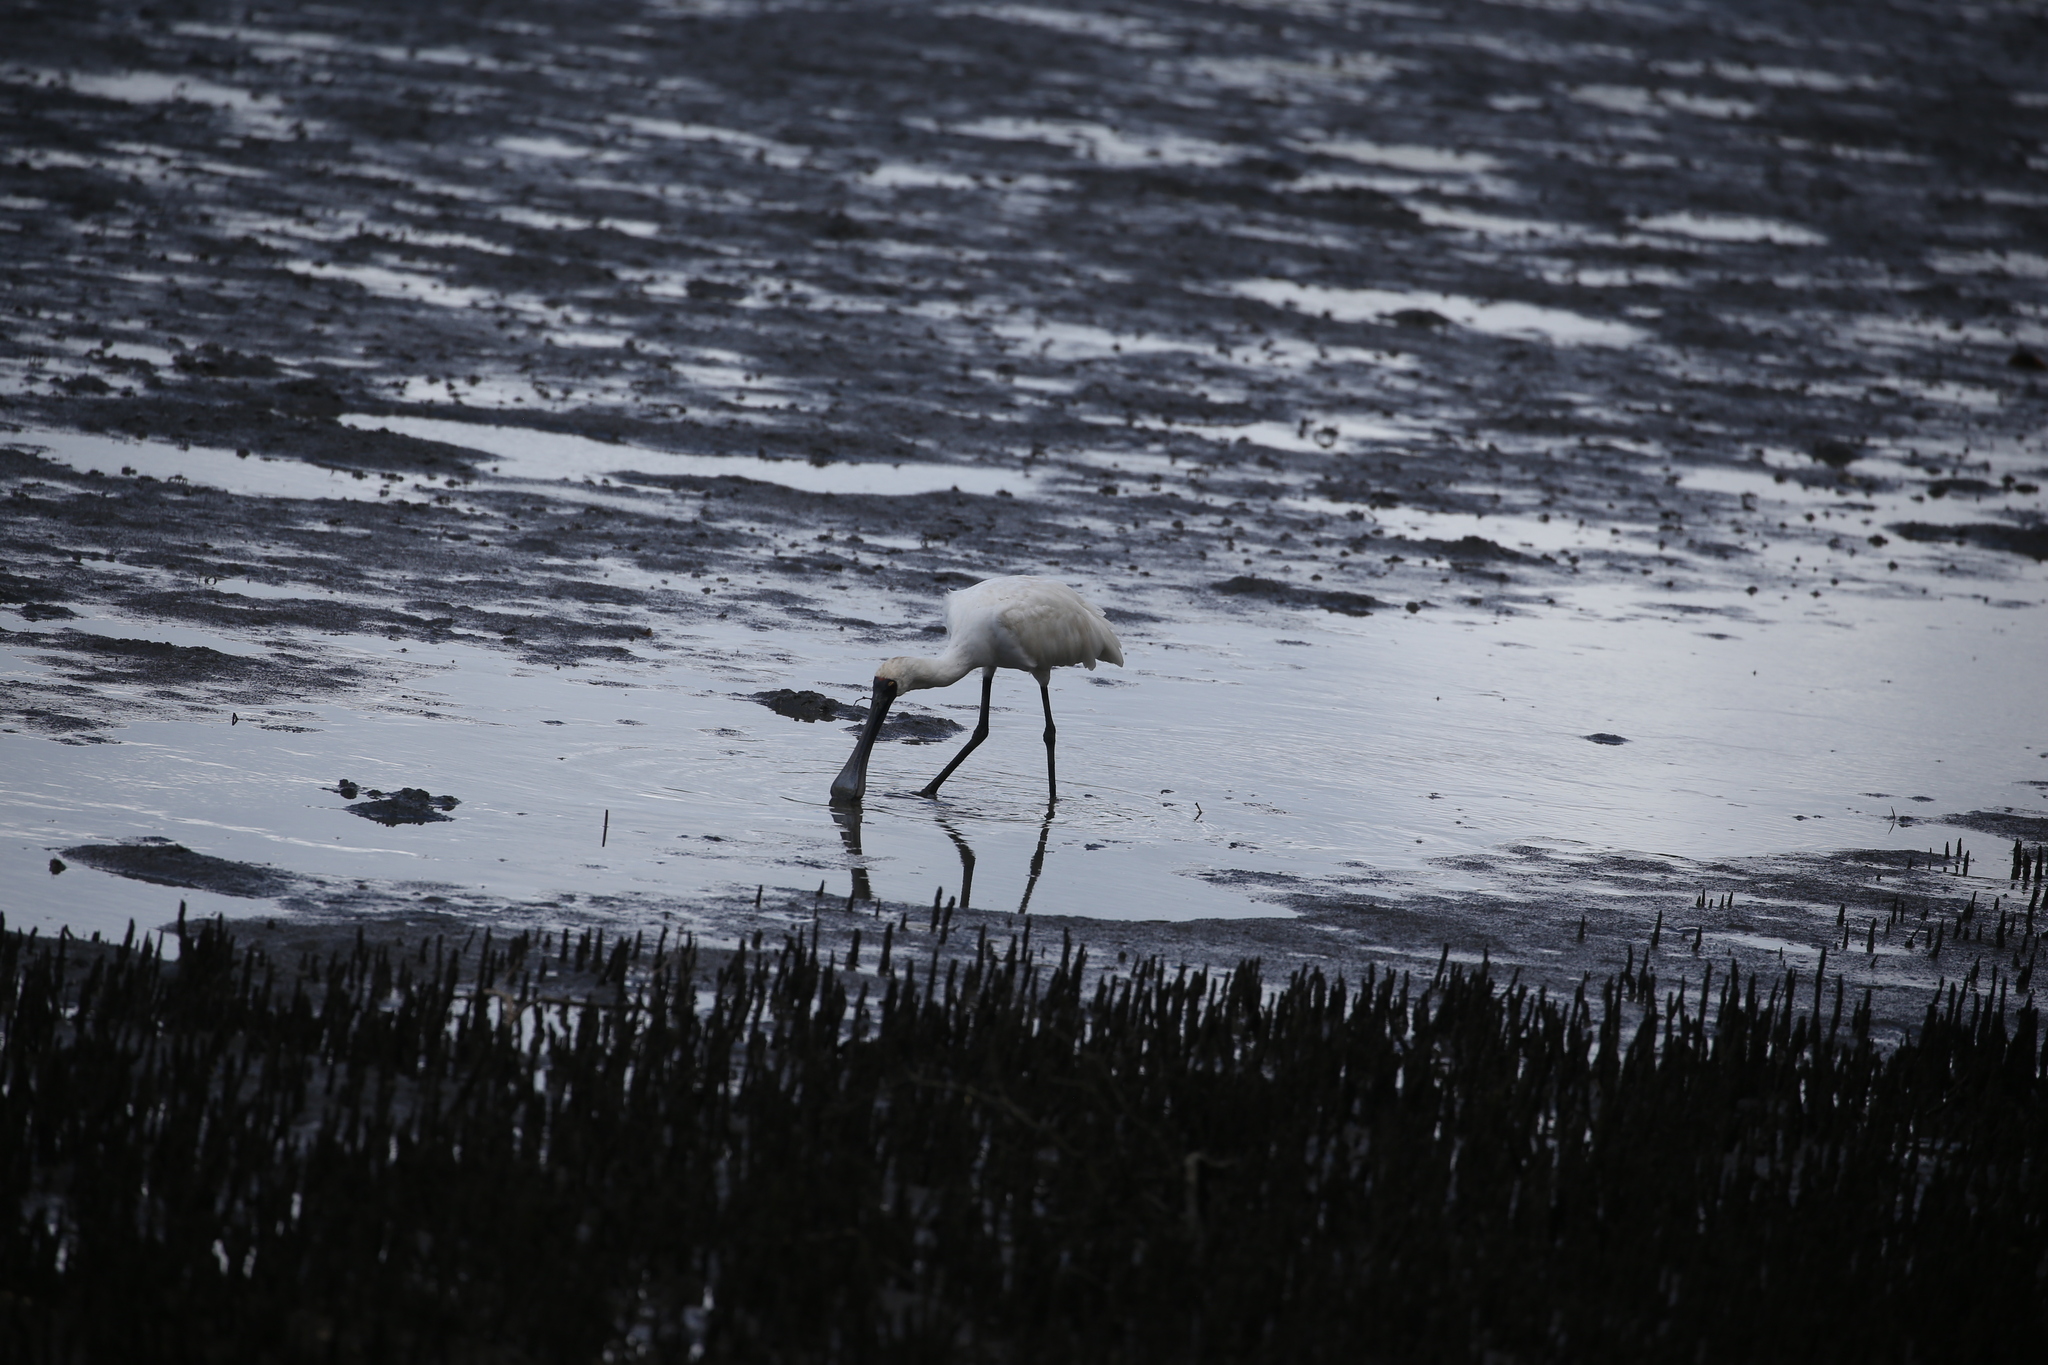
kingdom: Animalia
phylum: Chordata
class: Aves
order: Pelecaniformes
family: Threskiornithidae
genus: Platalea
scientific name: Platalea regia
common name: Royal spoonbill
